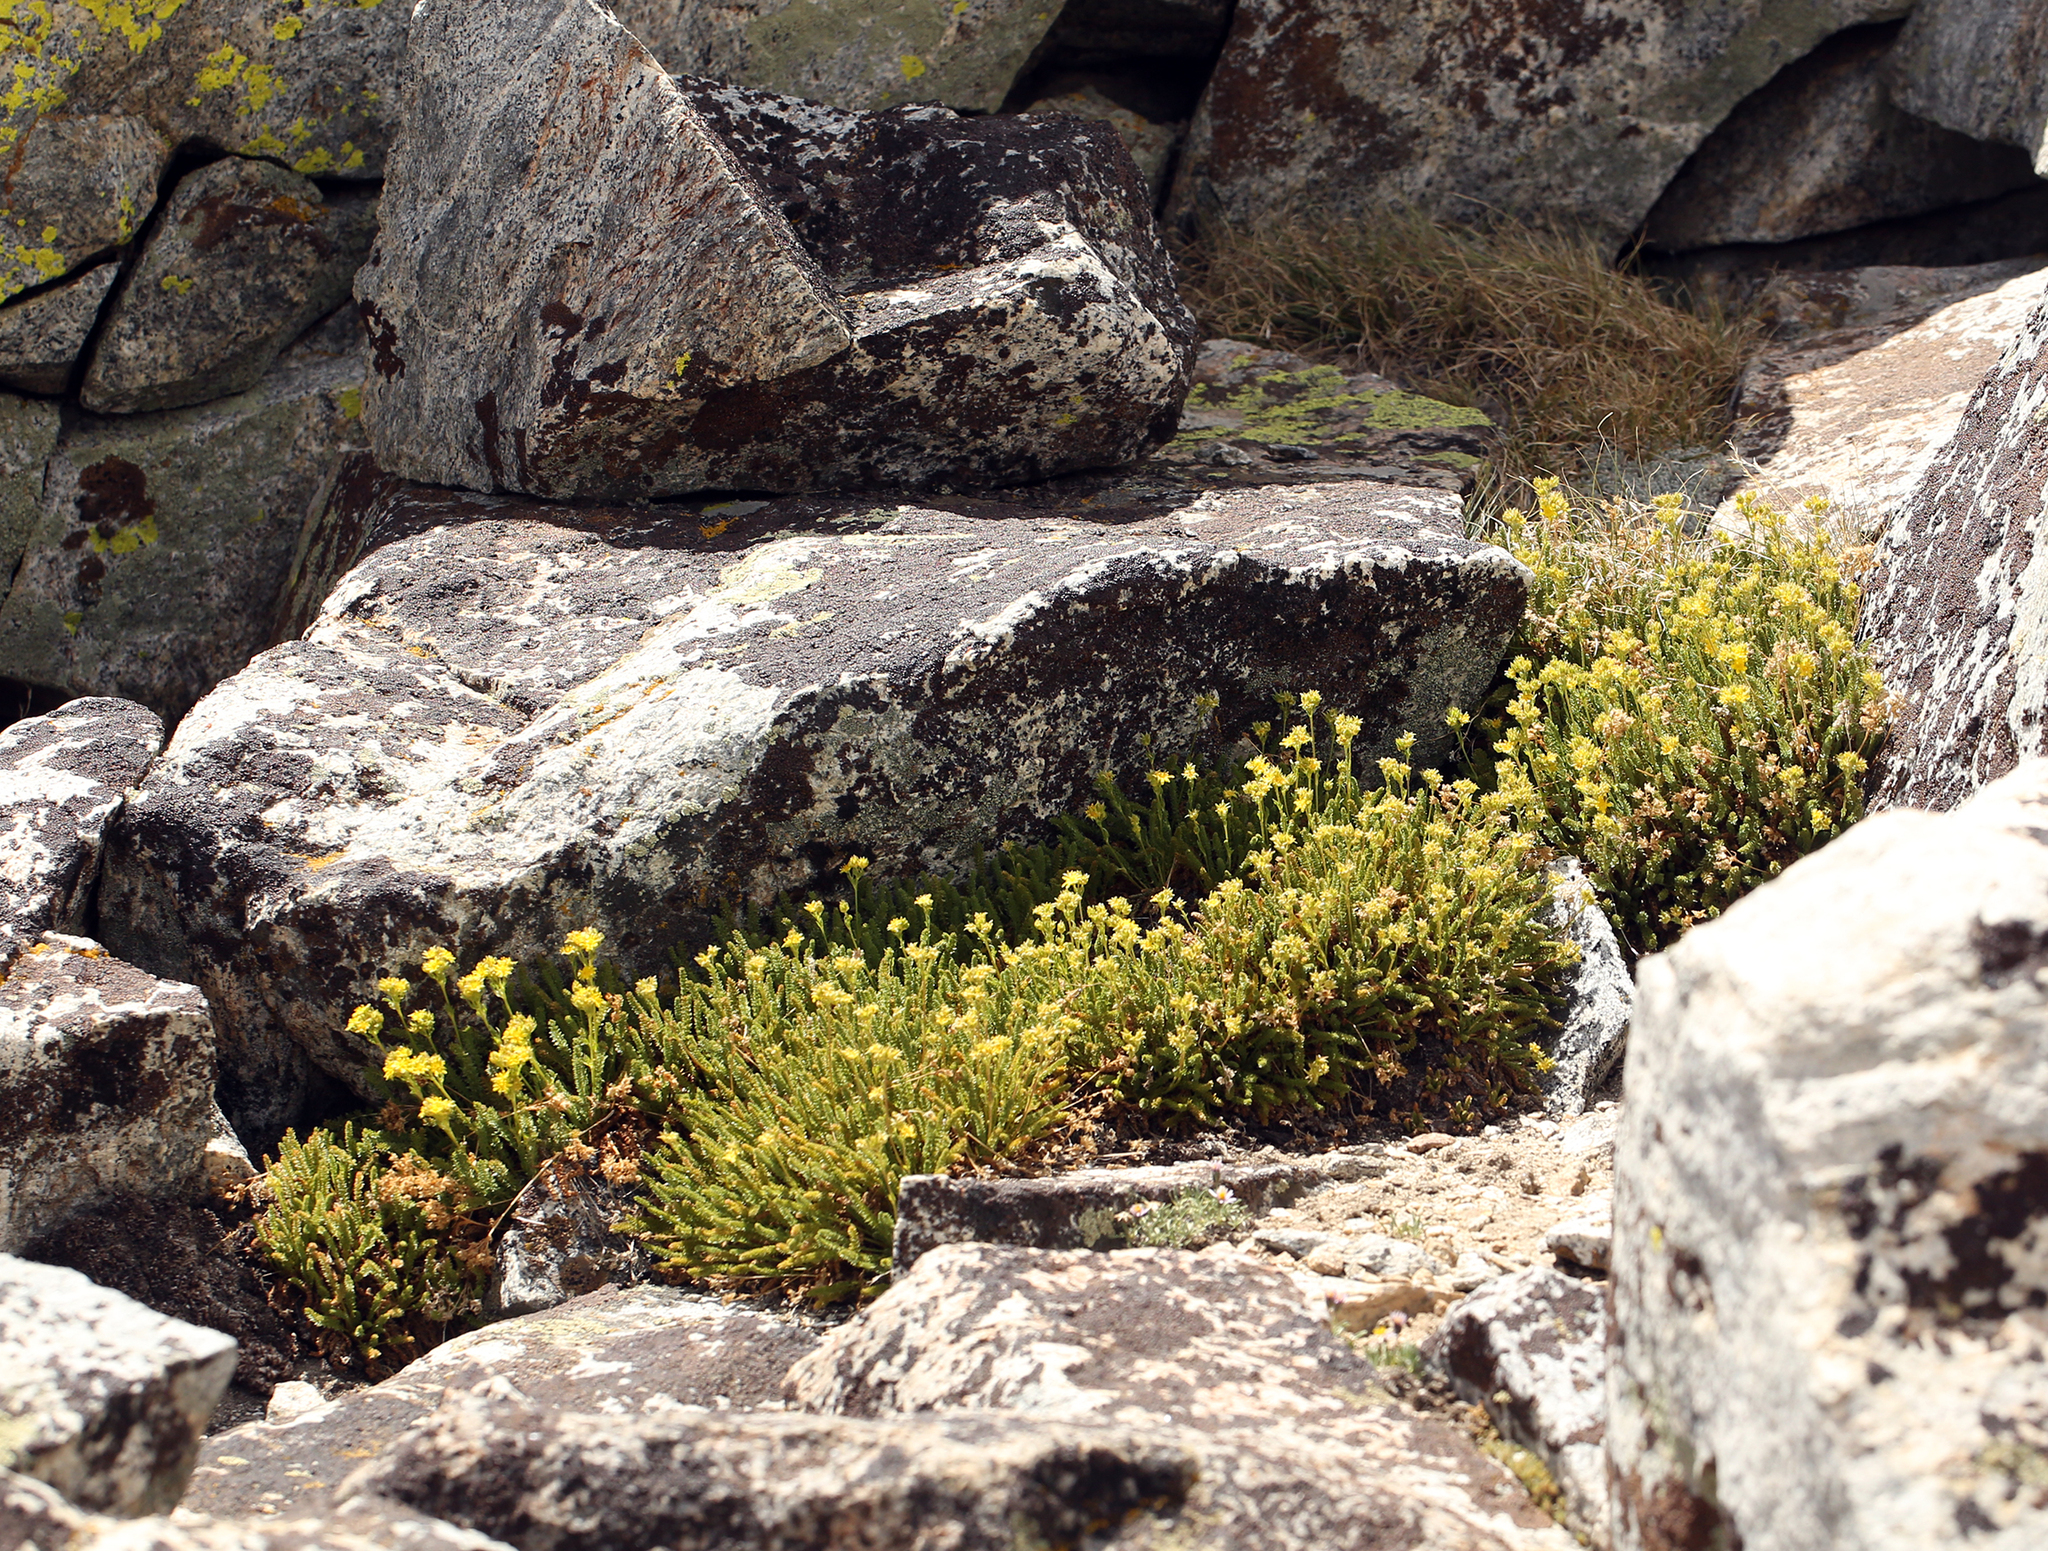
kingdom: Plantae
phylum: Tracheophyta
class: Magnoliopsida
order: Rosales
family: Rosaceae
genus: Potentilla
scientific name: Potentilla
